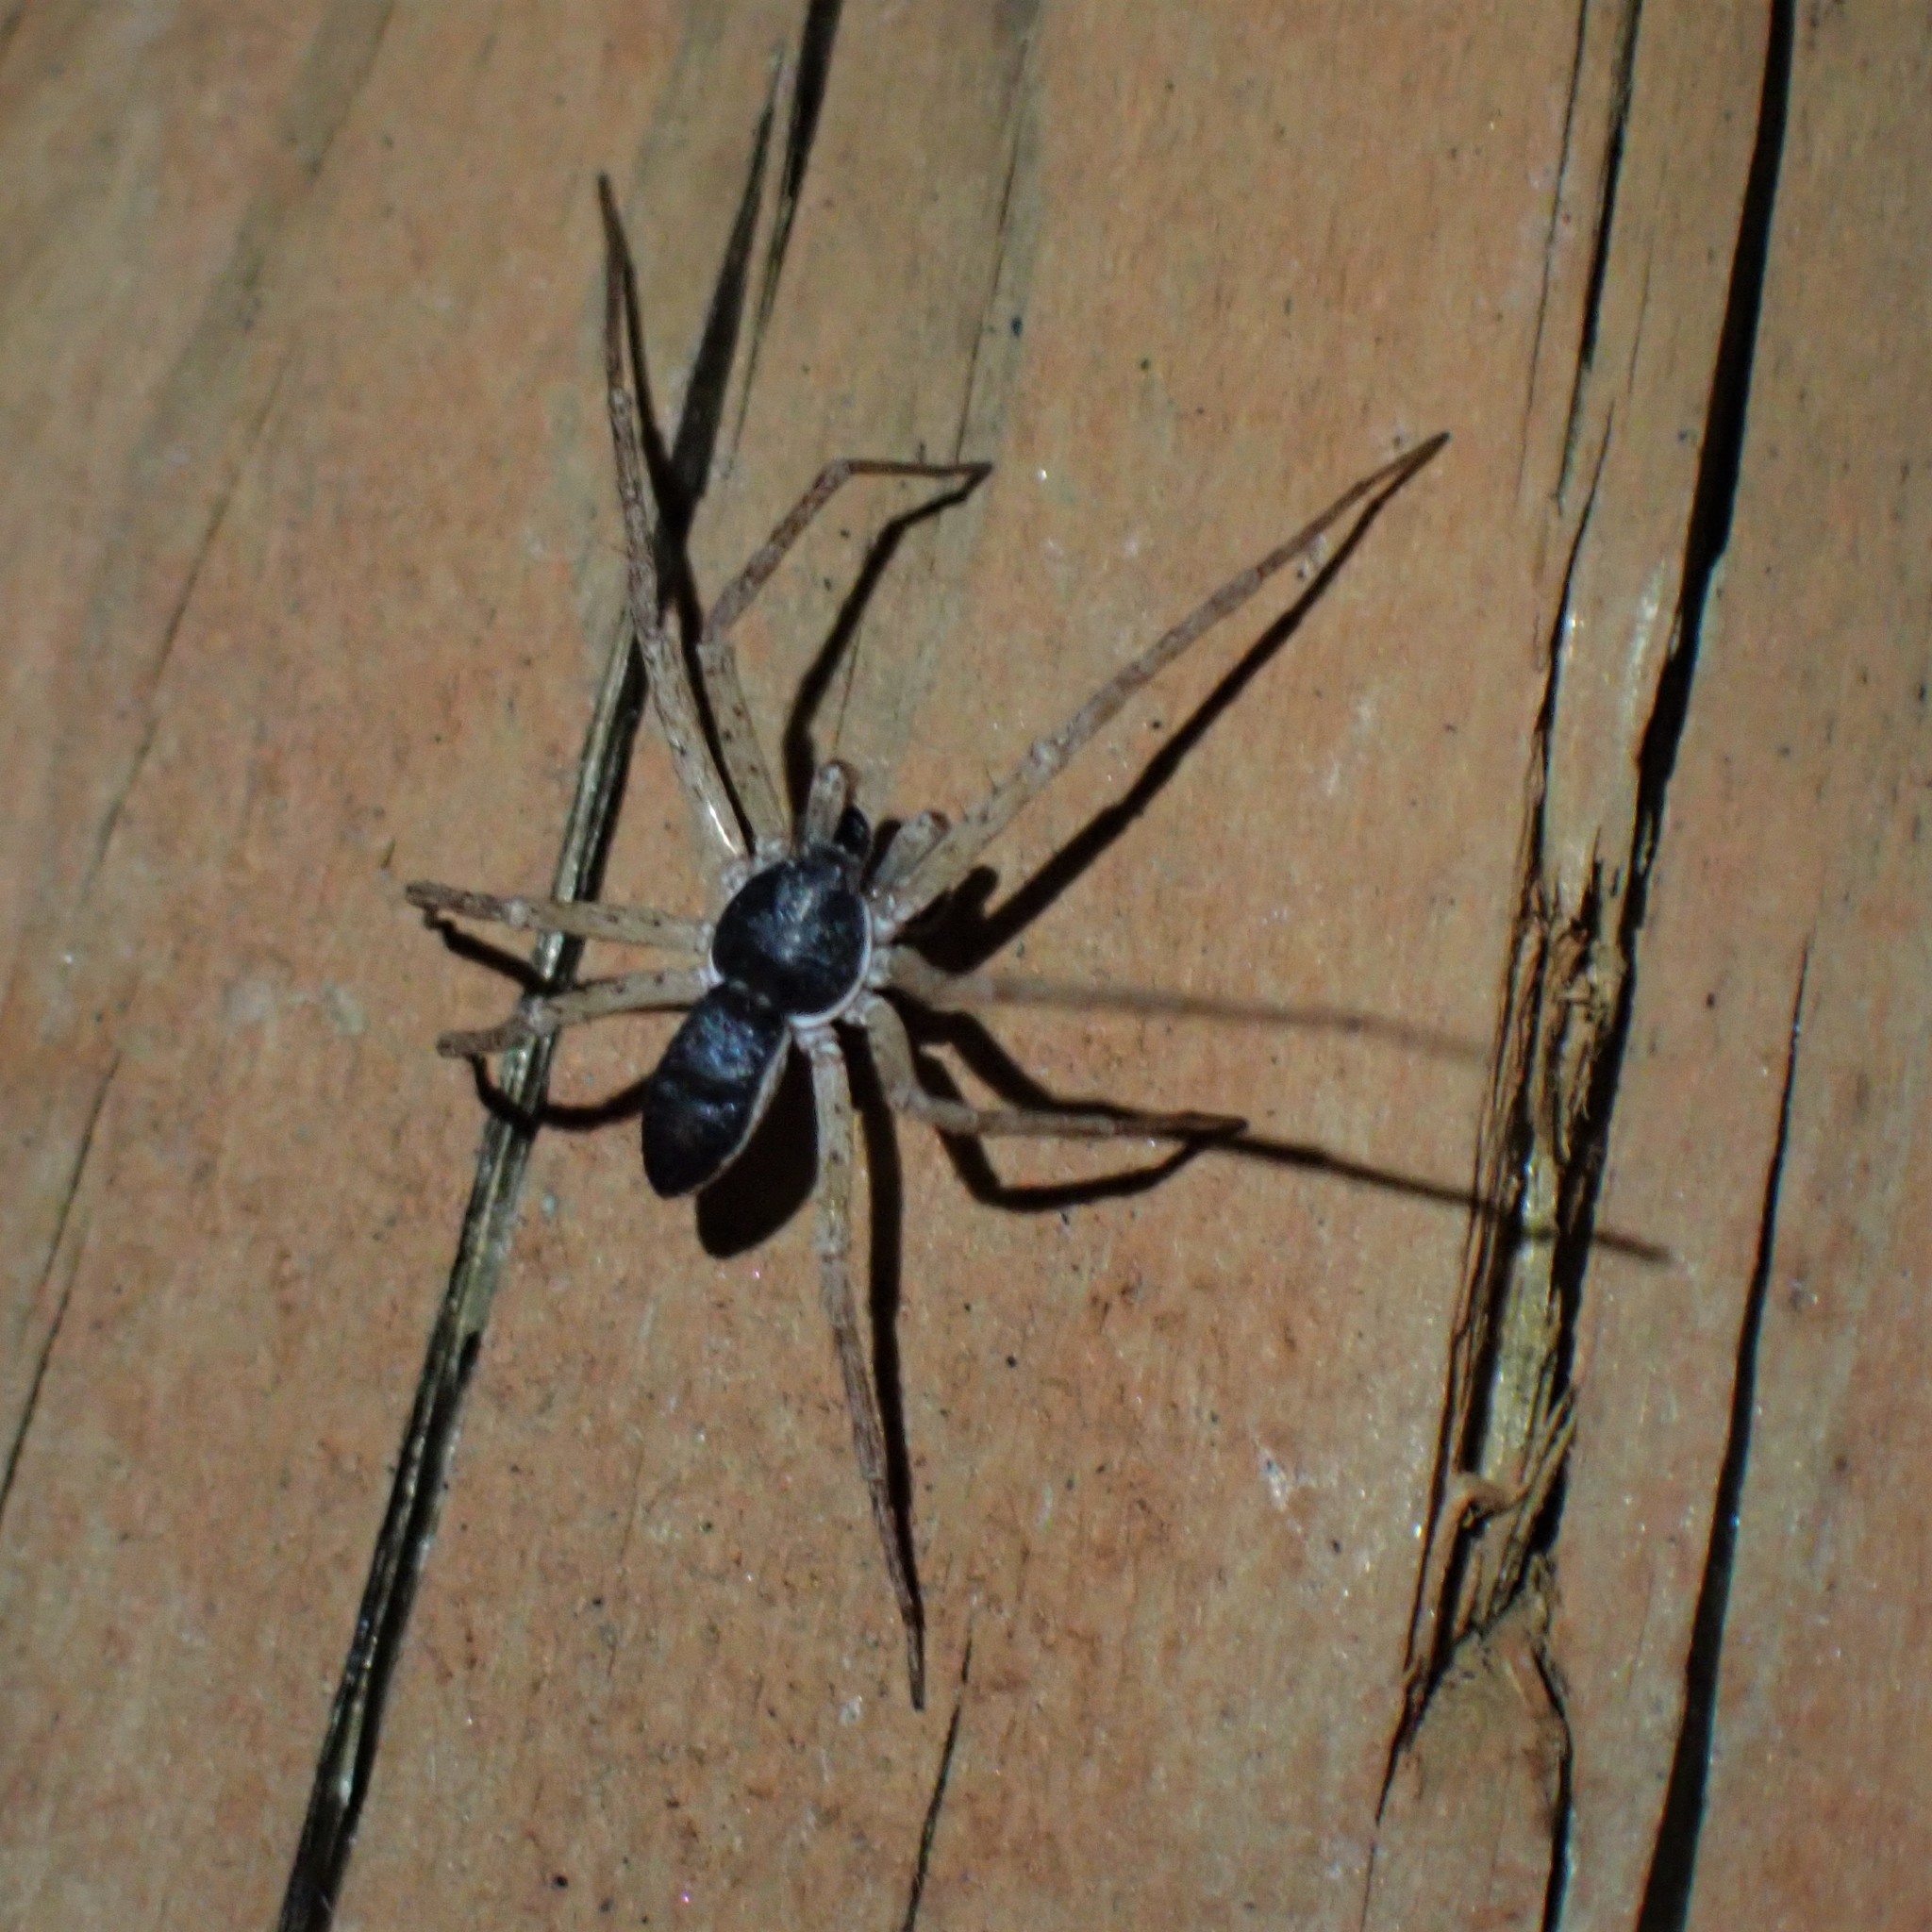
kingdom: Animalia
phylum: Arthropoda
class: Arachnida
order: Araneae
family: Philodromidae
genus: Philodromus
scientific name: Philodromus dispar
